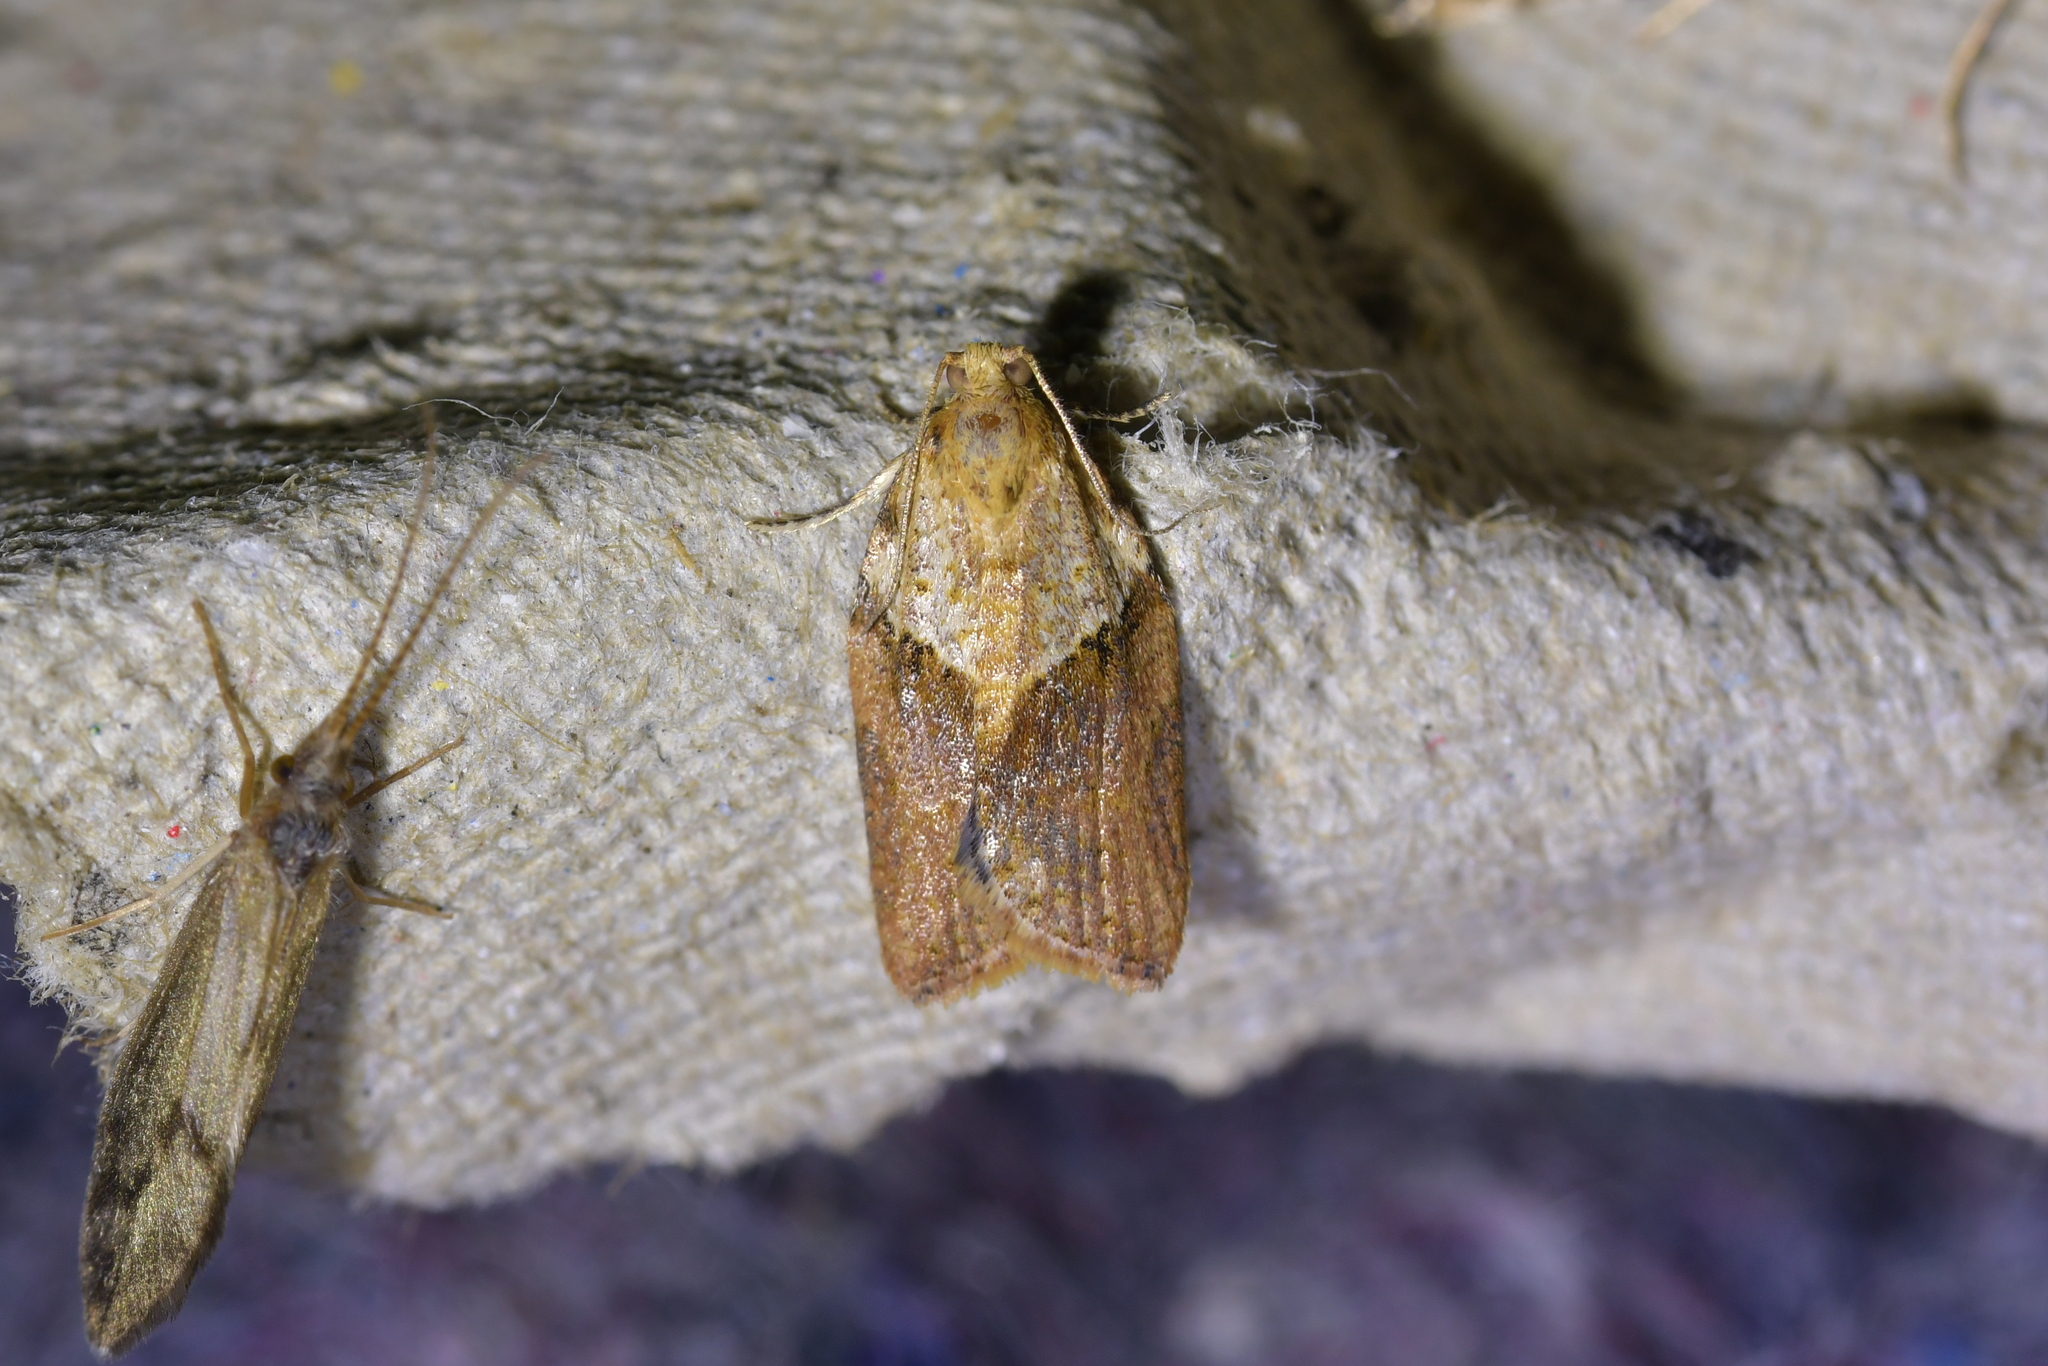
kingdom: Animalia
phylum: Arthropoda
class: Insecta
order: Lepidoptera
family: Tortricidae
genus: Epiphyas
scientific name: Epiphyas postvittana
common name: Light brown apple moth
